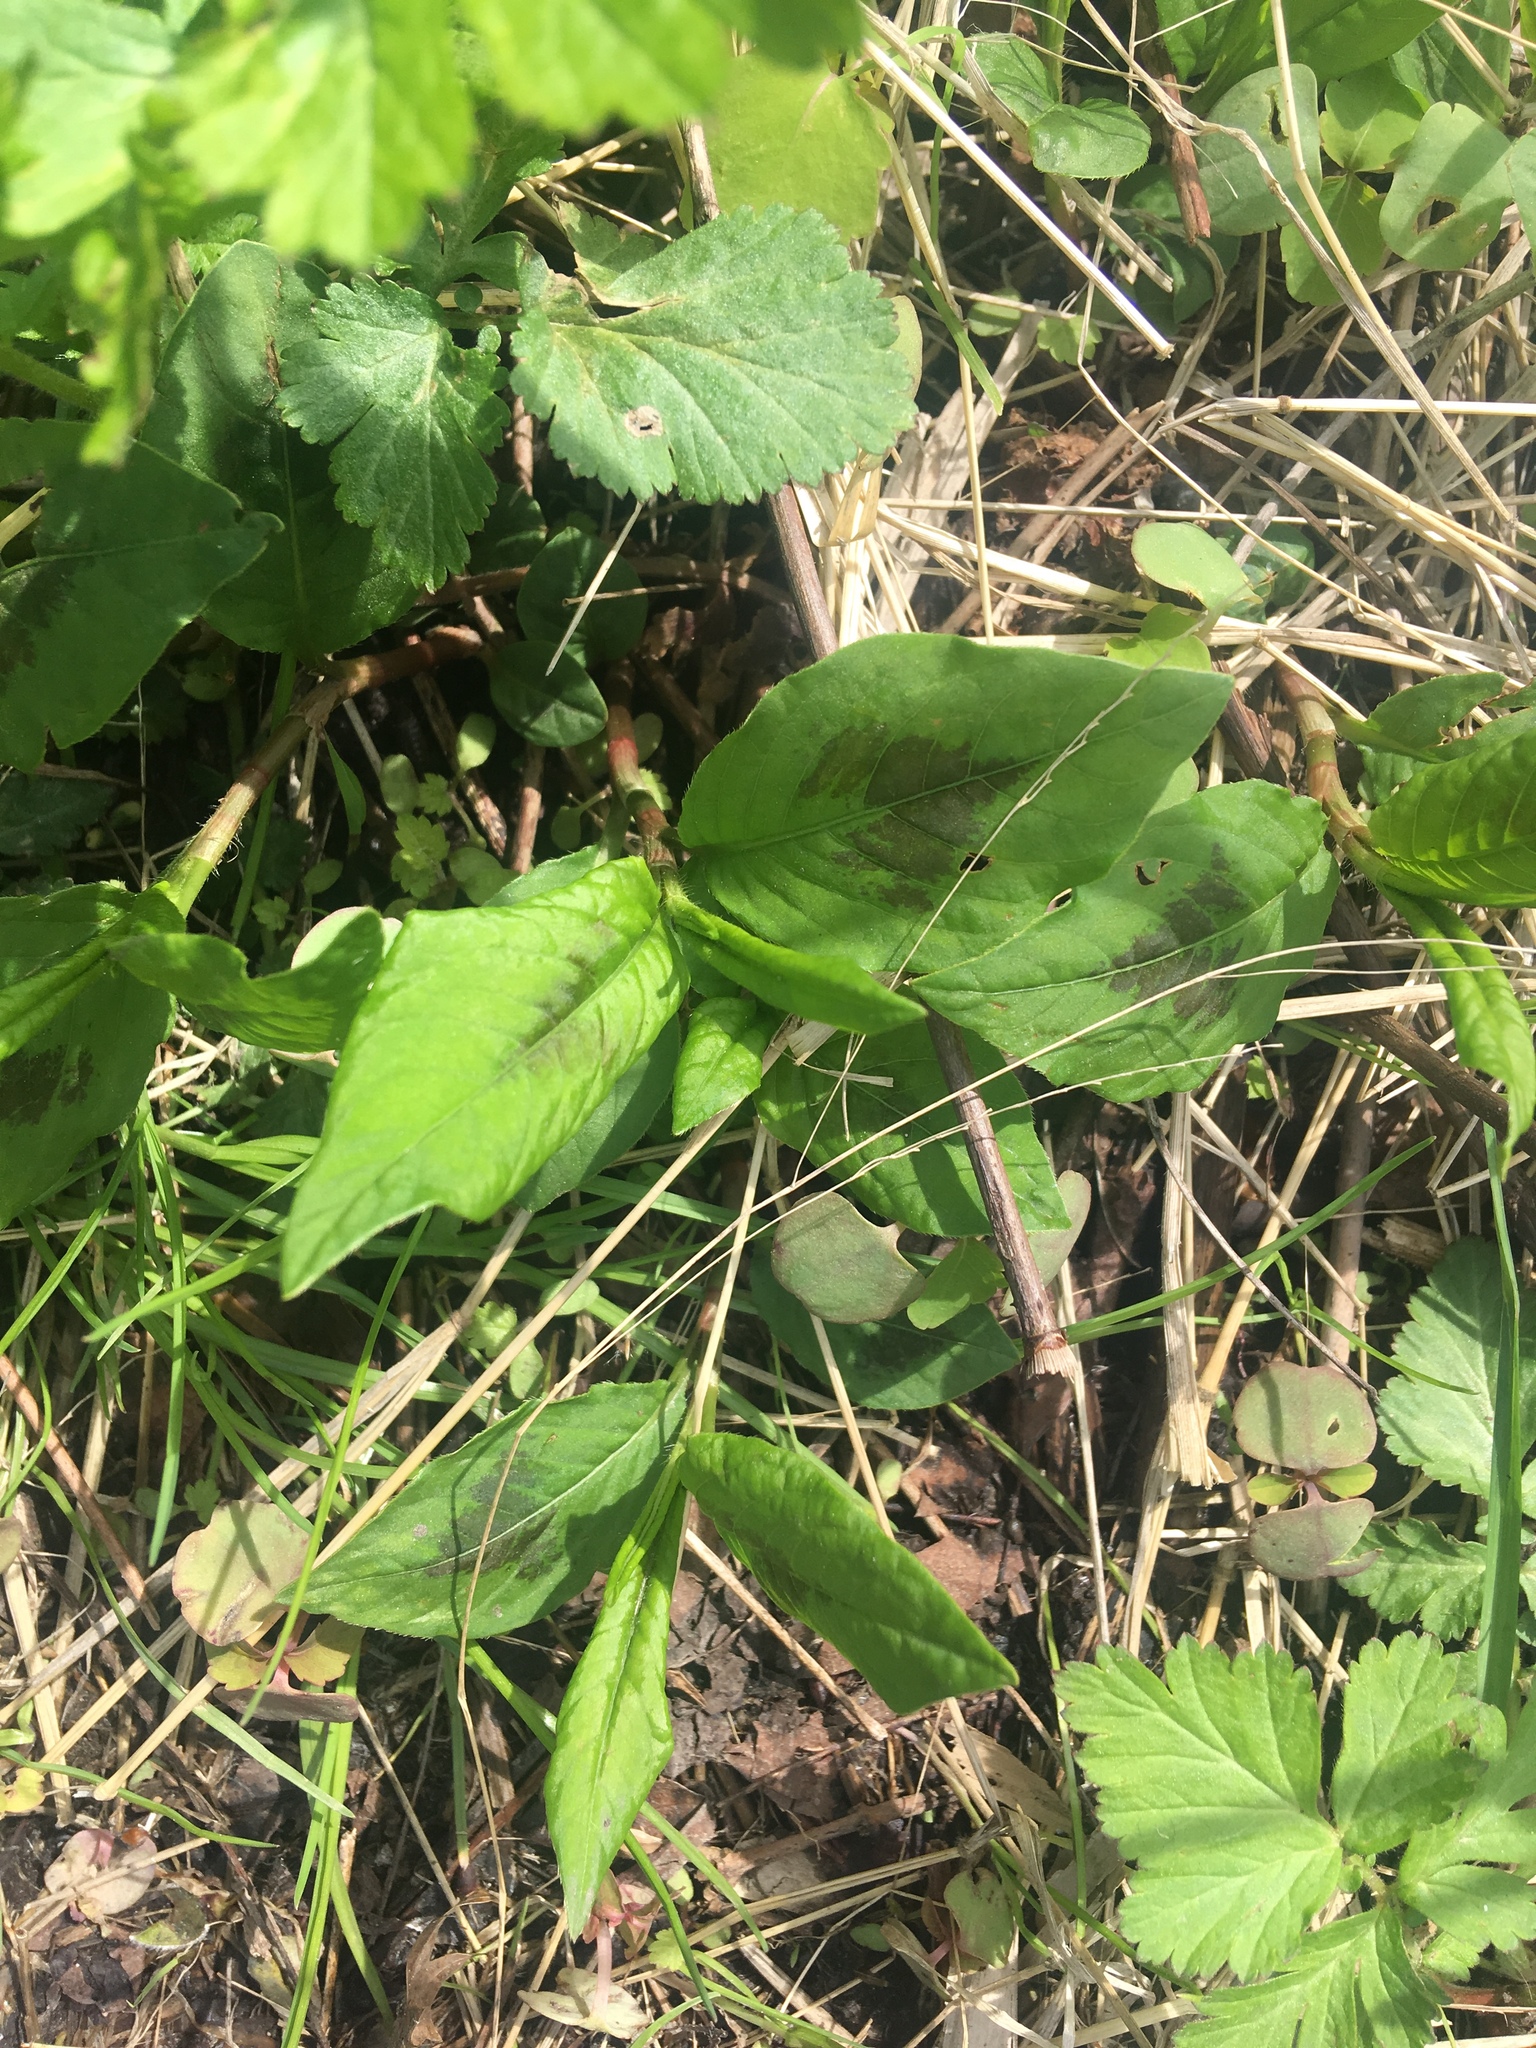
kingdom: Plantae
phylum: Tracheophyta
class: Magnoliopsida
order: Caryophyllales
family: Polygonaceae
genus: Persicaria
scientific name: Persicaria virginiana
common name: Jumpseed
